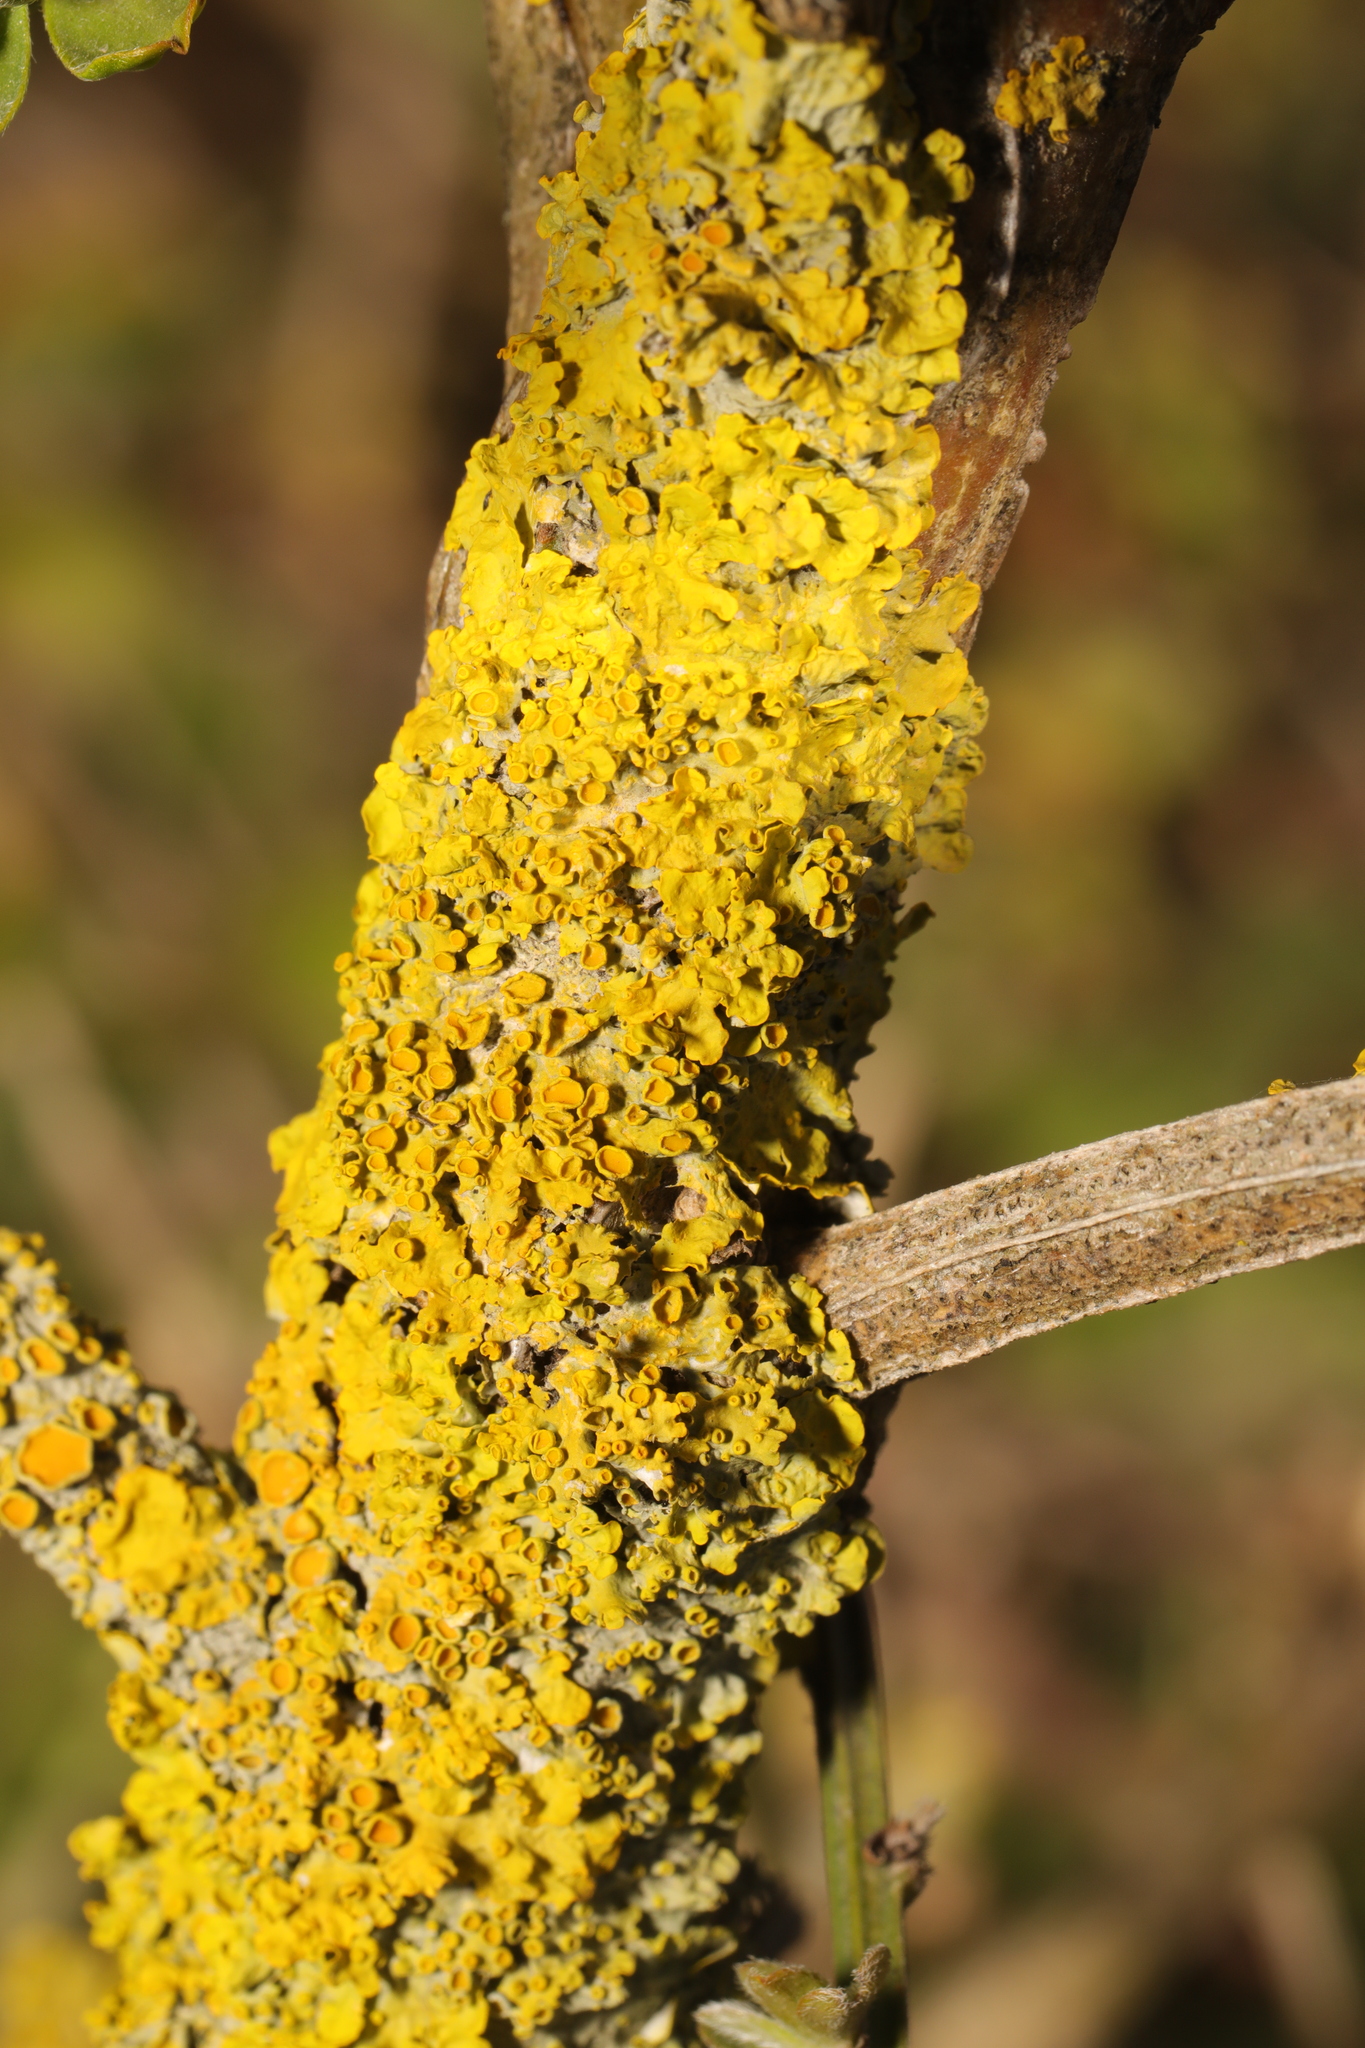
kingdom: Fungi
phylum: Ascomycota
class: Lecanoromycetes
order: Teloschistales
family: Teloschistaceae
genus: Xanthoria
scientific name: Xanthoria parietina
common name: Common orange lichen
